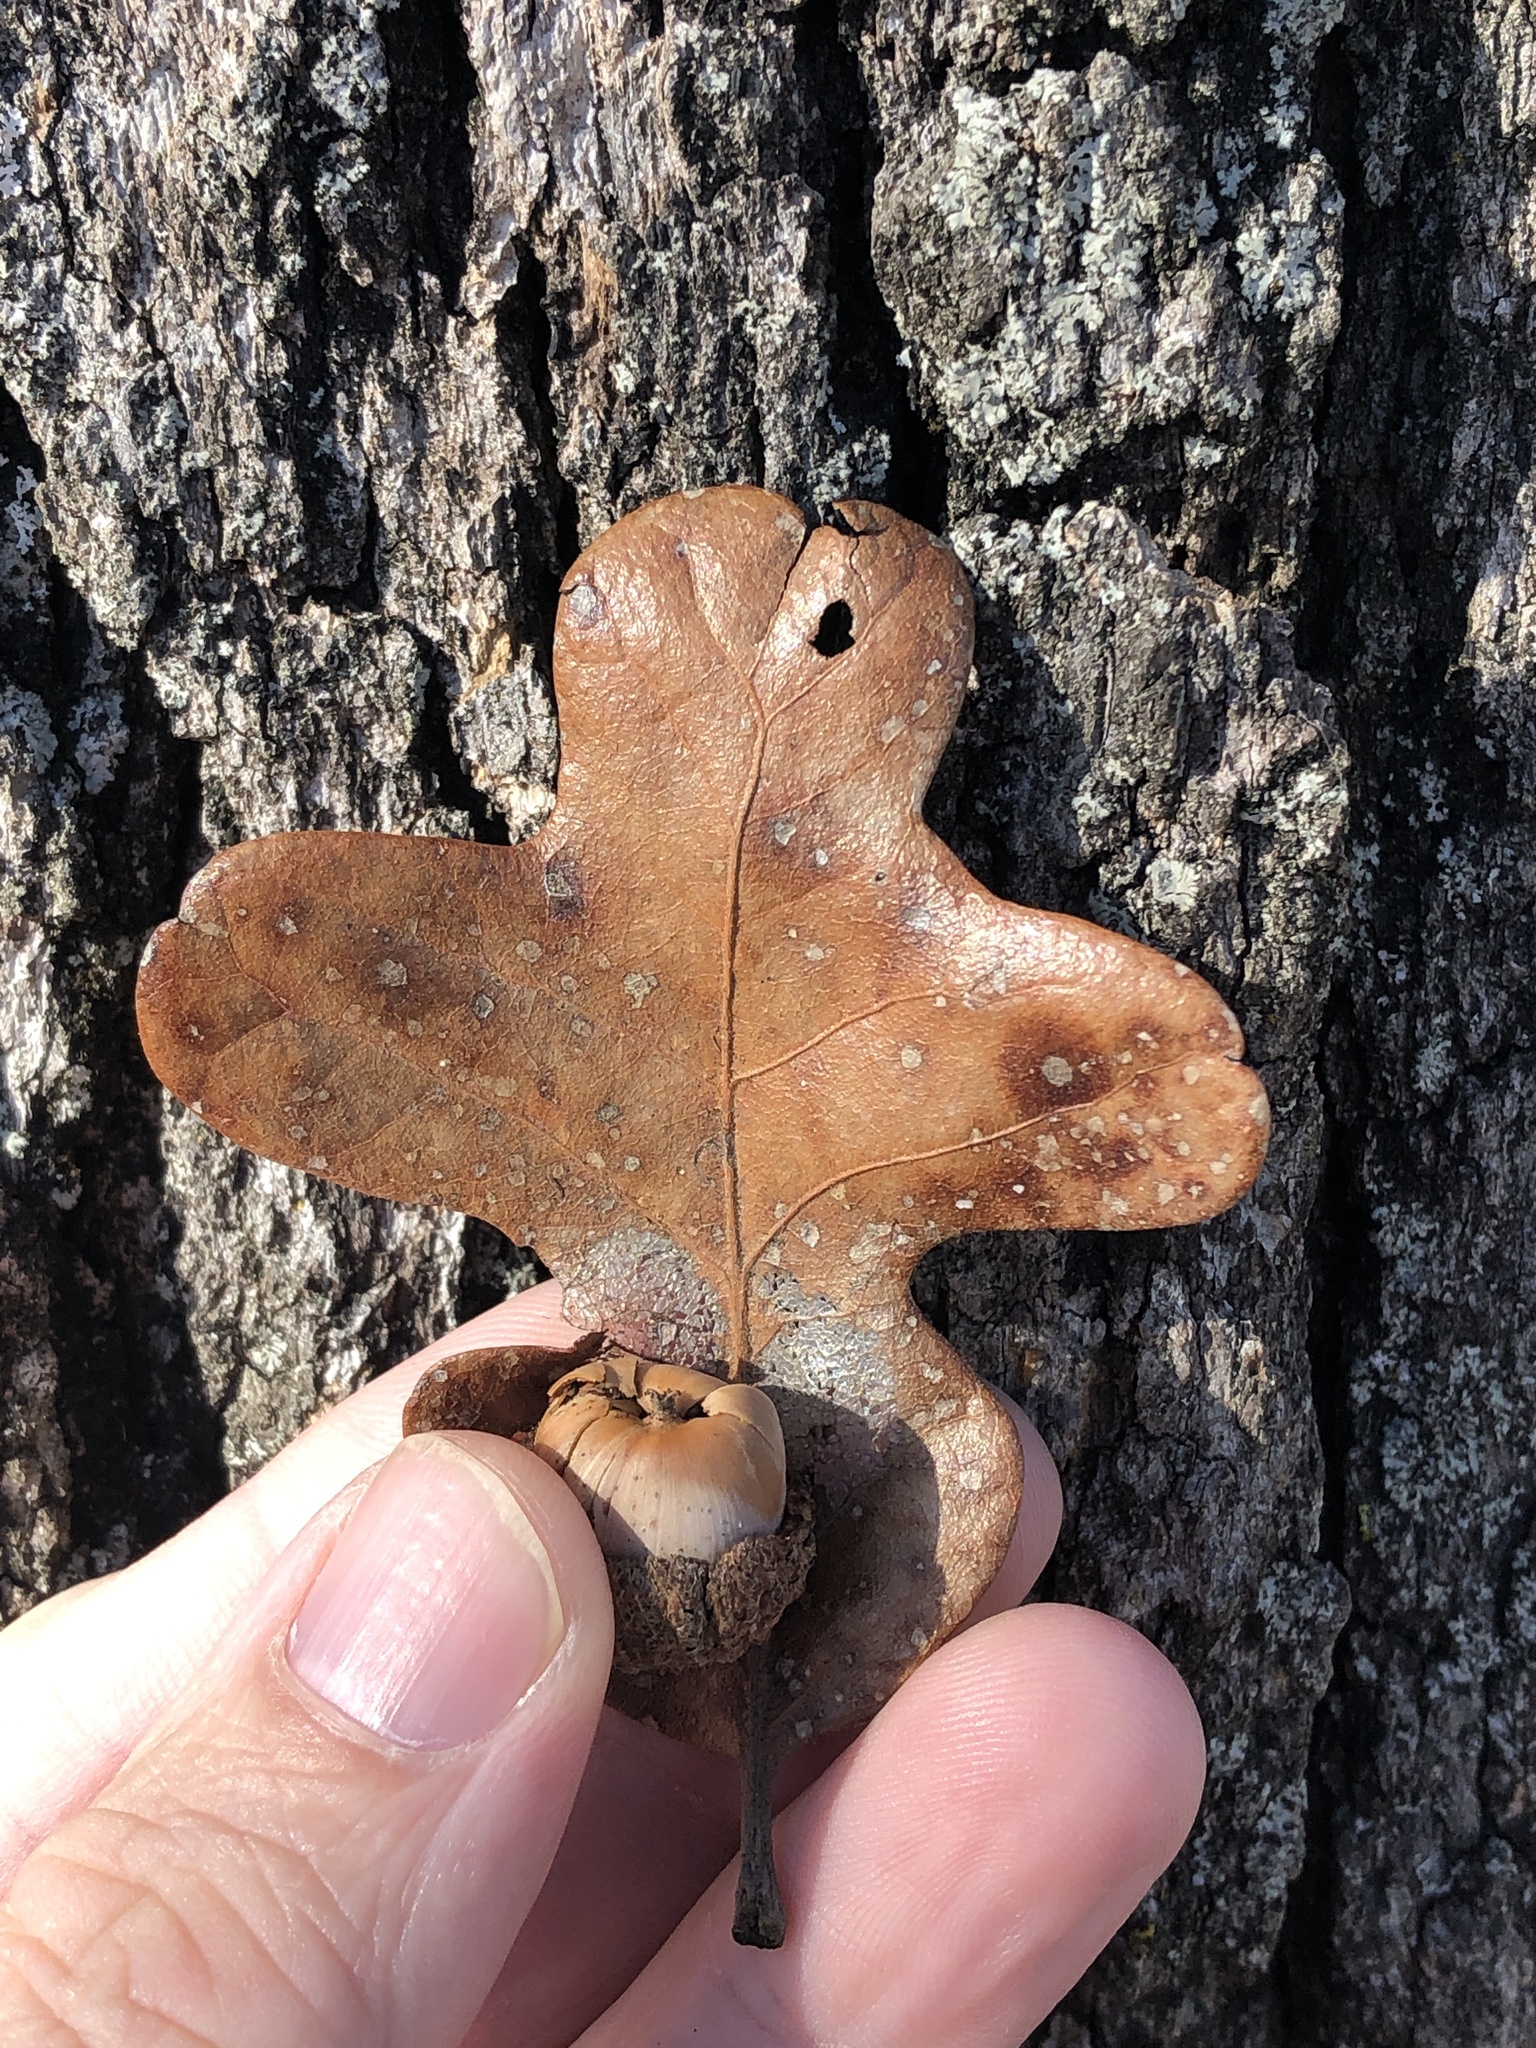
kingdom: Plantae
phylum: Tracheophyta
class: Magnoliopsida
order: Fagales
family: Fagaceae
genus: Quercus
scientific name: Quercus stellata
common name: Post oak
